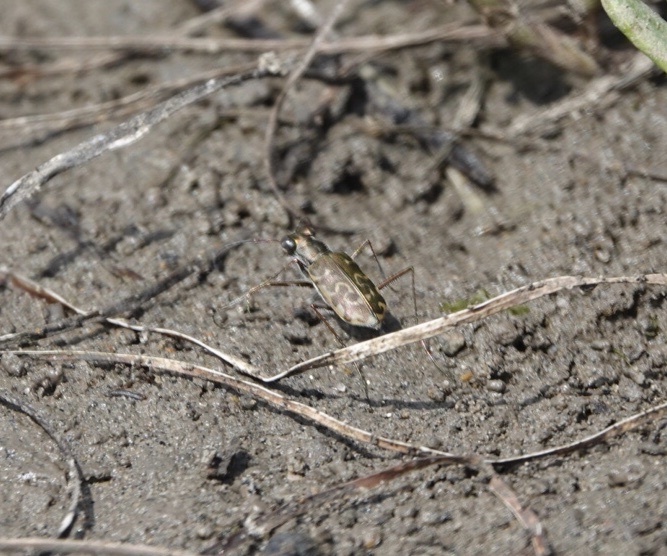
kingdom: Animalia
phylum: Arthropoda
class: Insecta
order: Coleoptera
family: Carabidae
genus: Cicindela
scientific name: Cicindela trifasciata
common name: Mudflat tiger beetle
